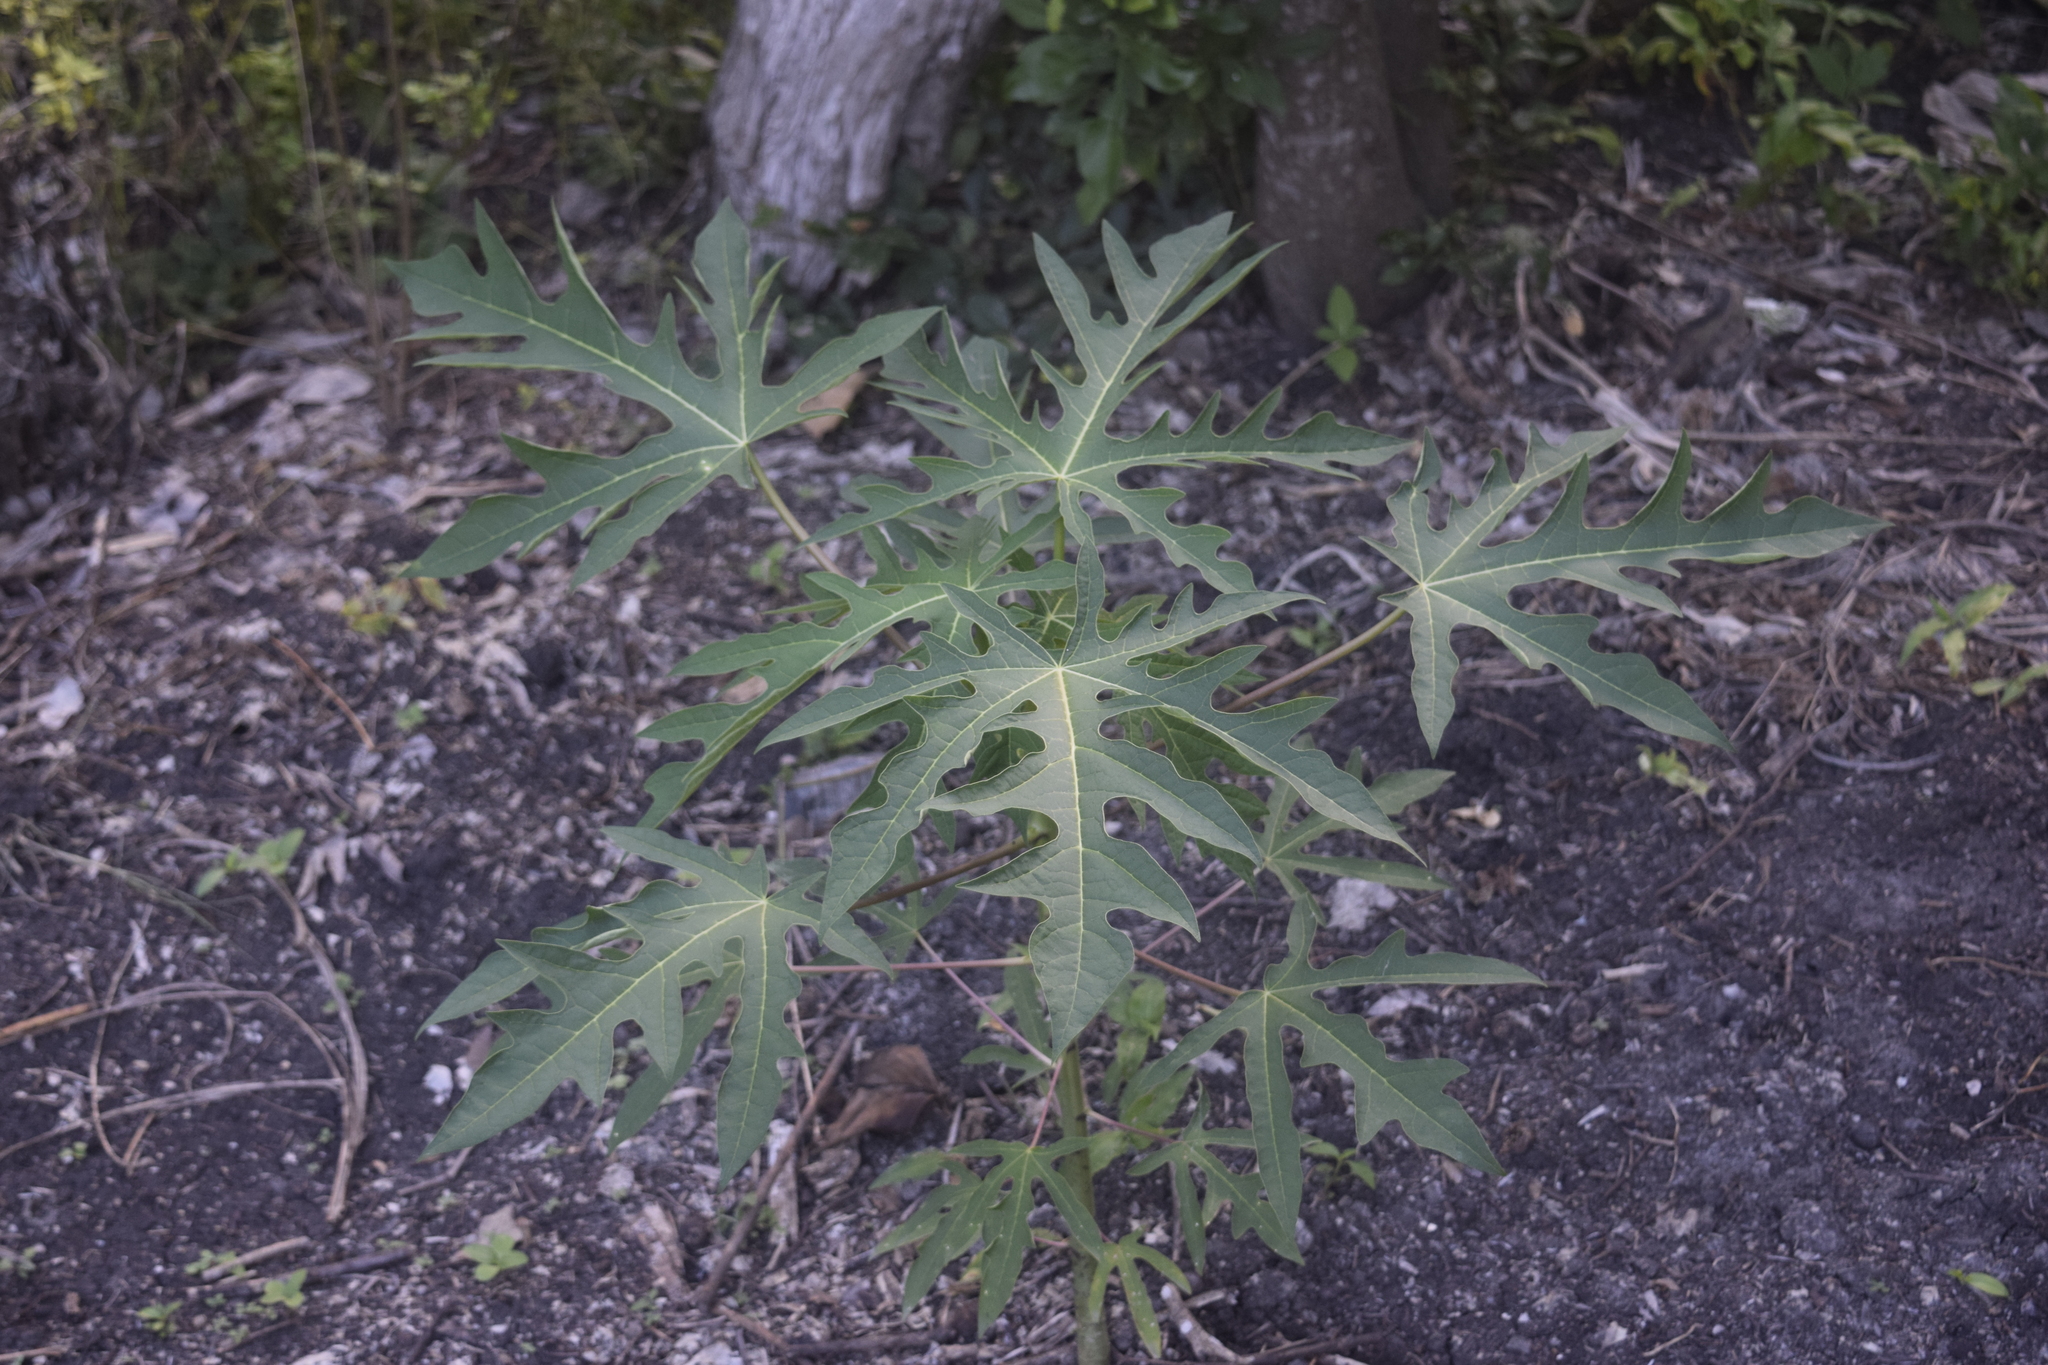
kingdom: Plantae
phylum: Tracheophyta
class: Magnoliopsida
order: Brassicales
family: Caricaceae
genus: Carica
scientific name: Carica papaya
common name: Papaya
